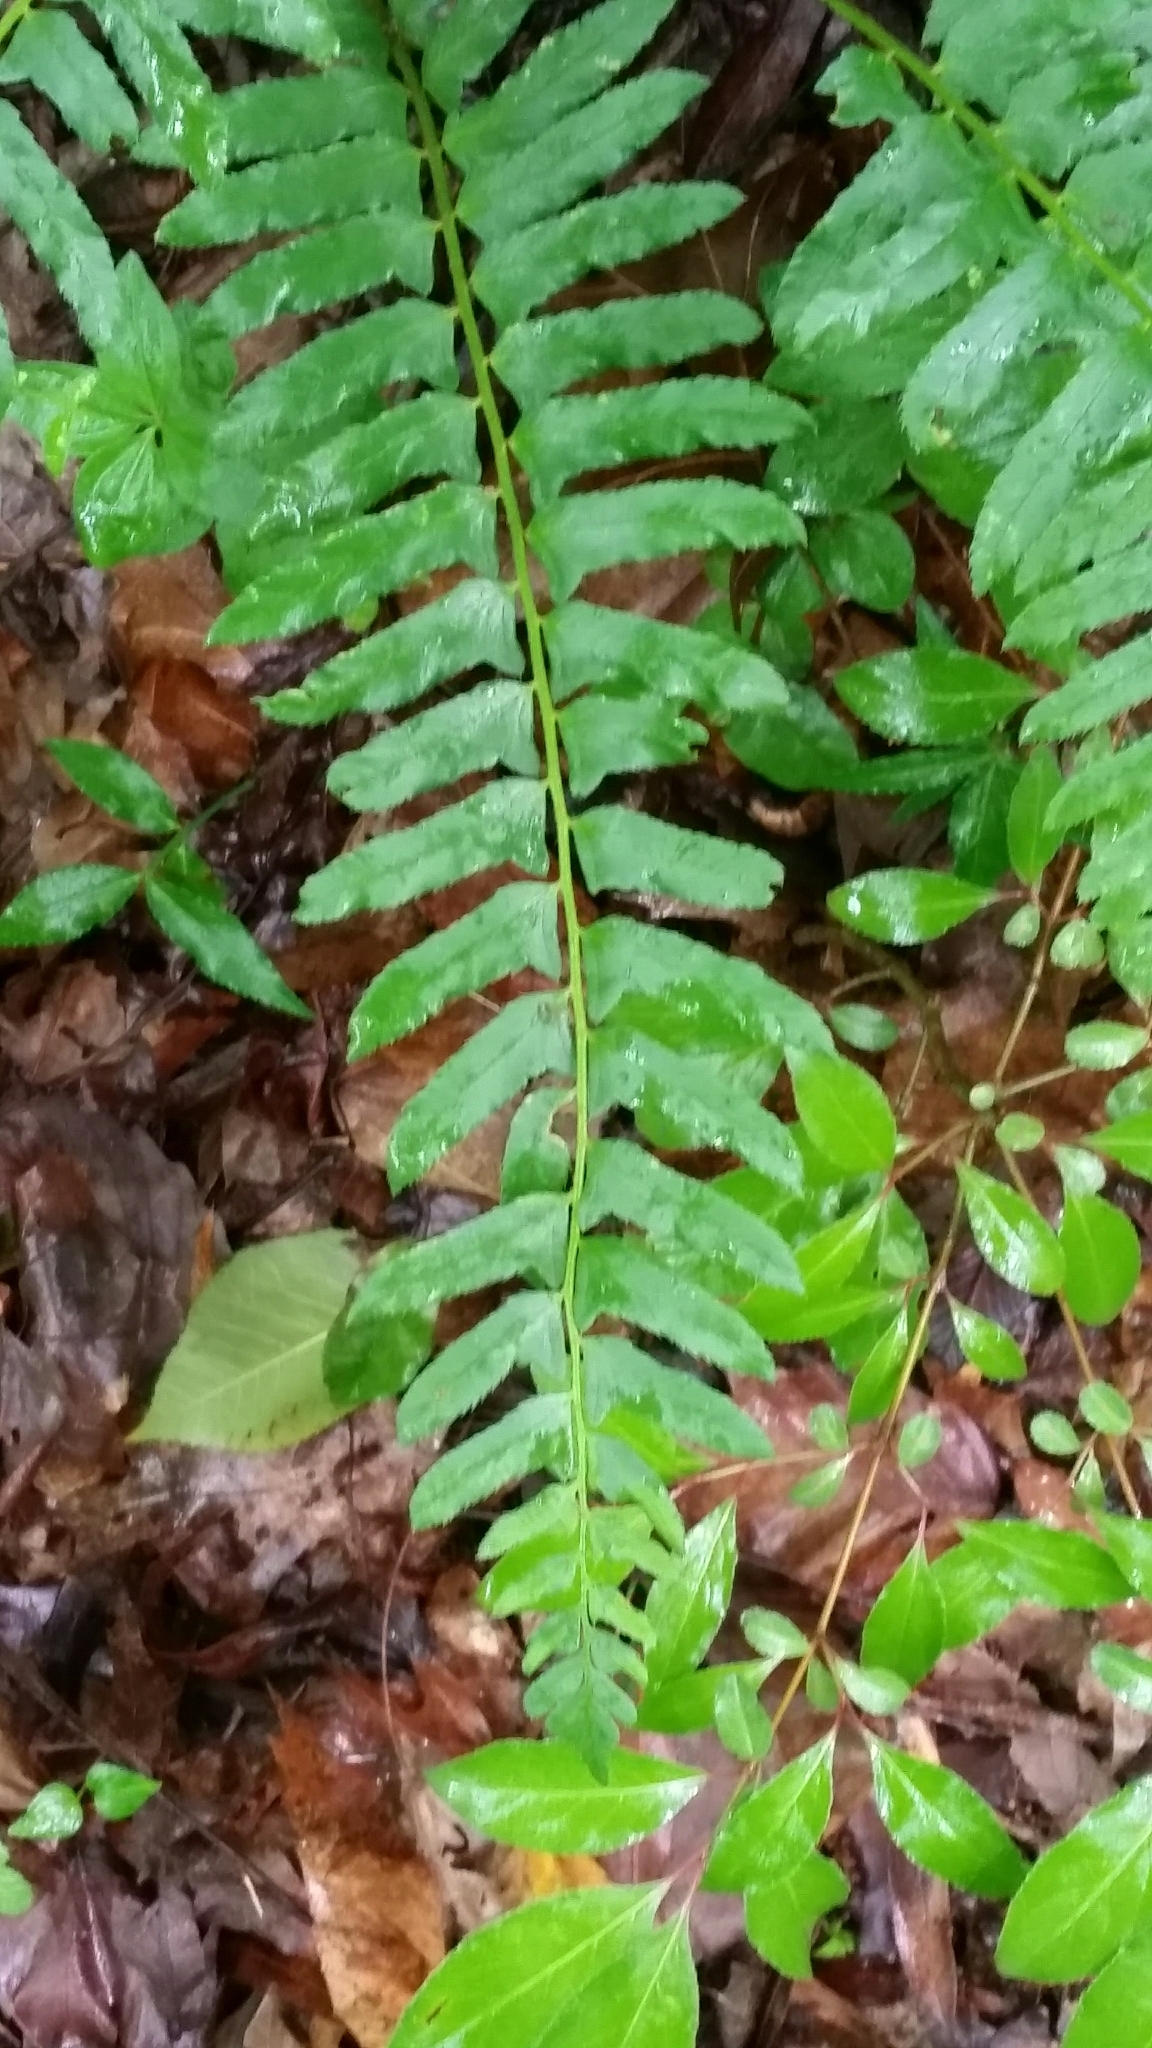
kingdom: Plantae
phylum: Tracheophyta
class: Polypodiopsida
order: Polypodiales
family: Dryopteridaceae
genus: Polystichum
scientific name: Polystichum acrostichoides
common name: Christmas fern
